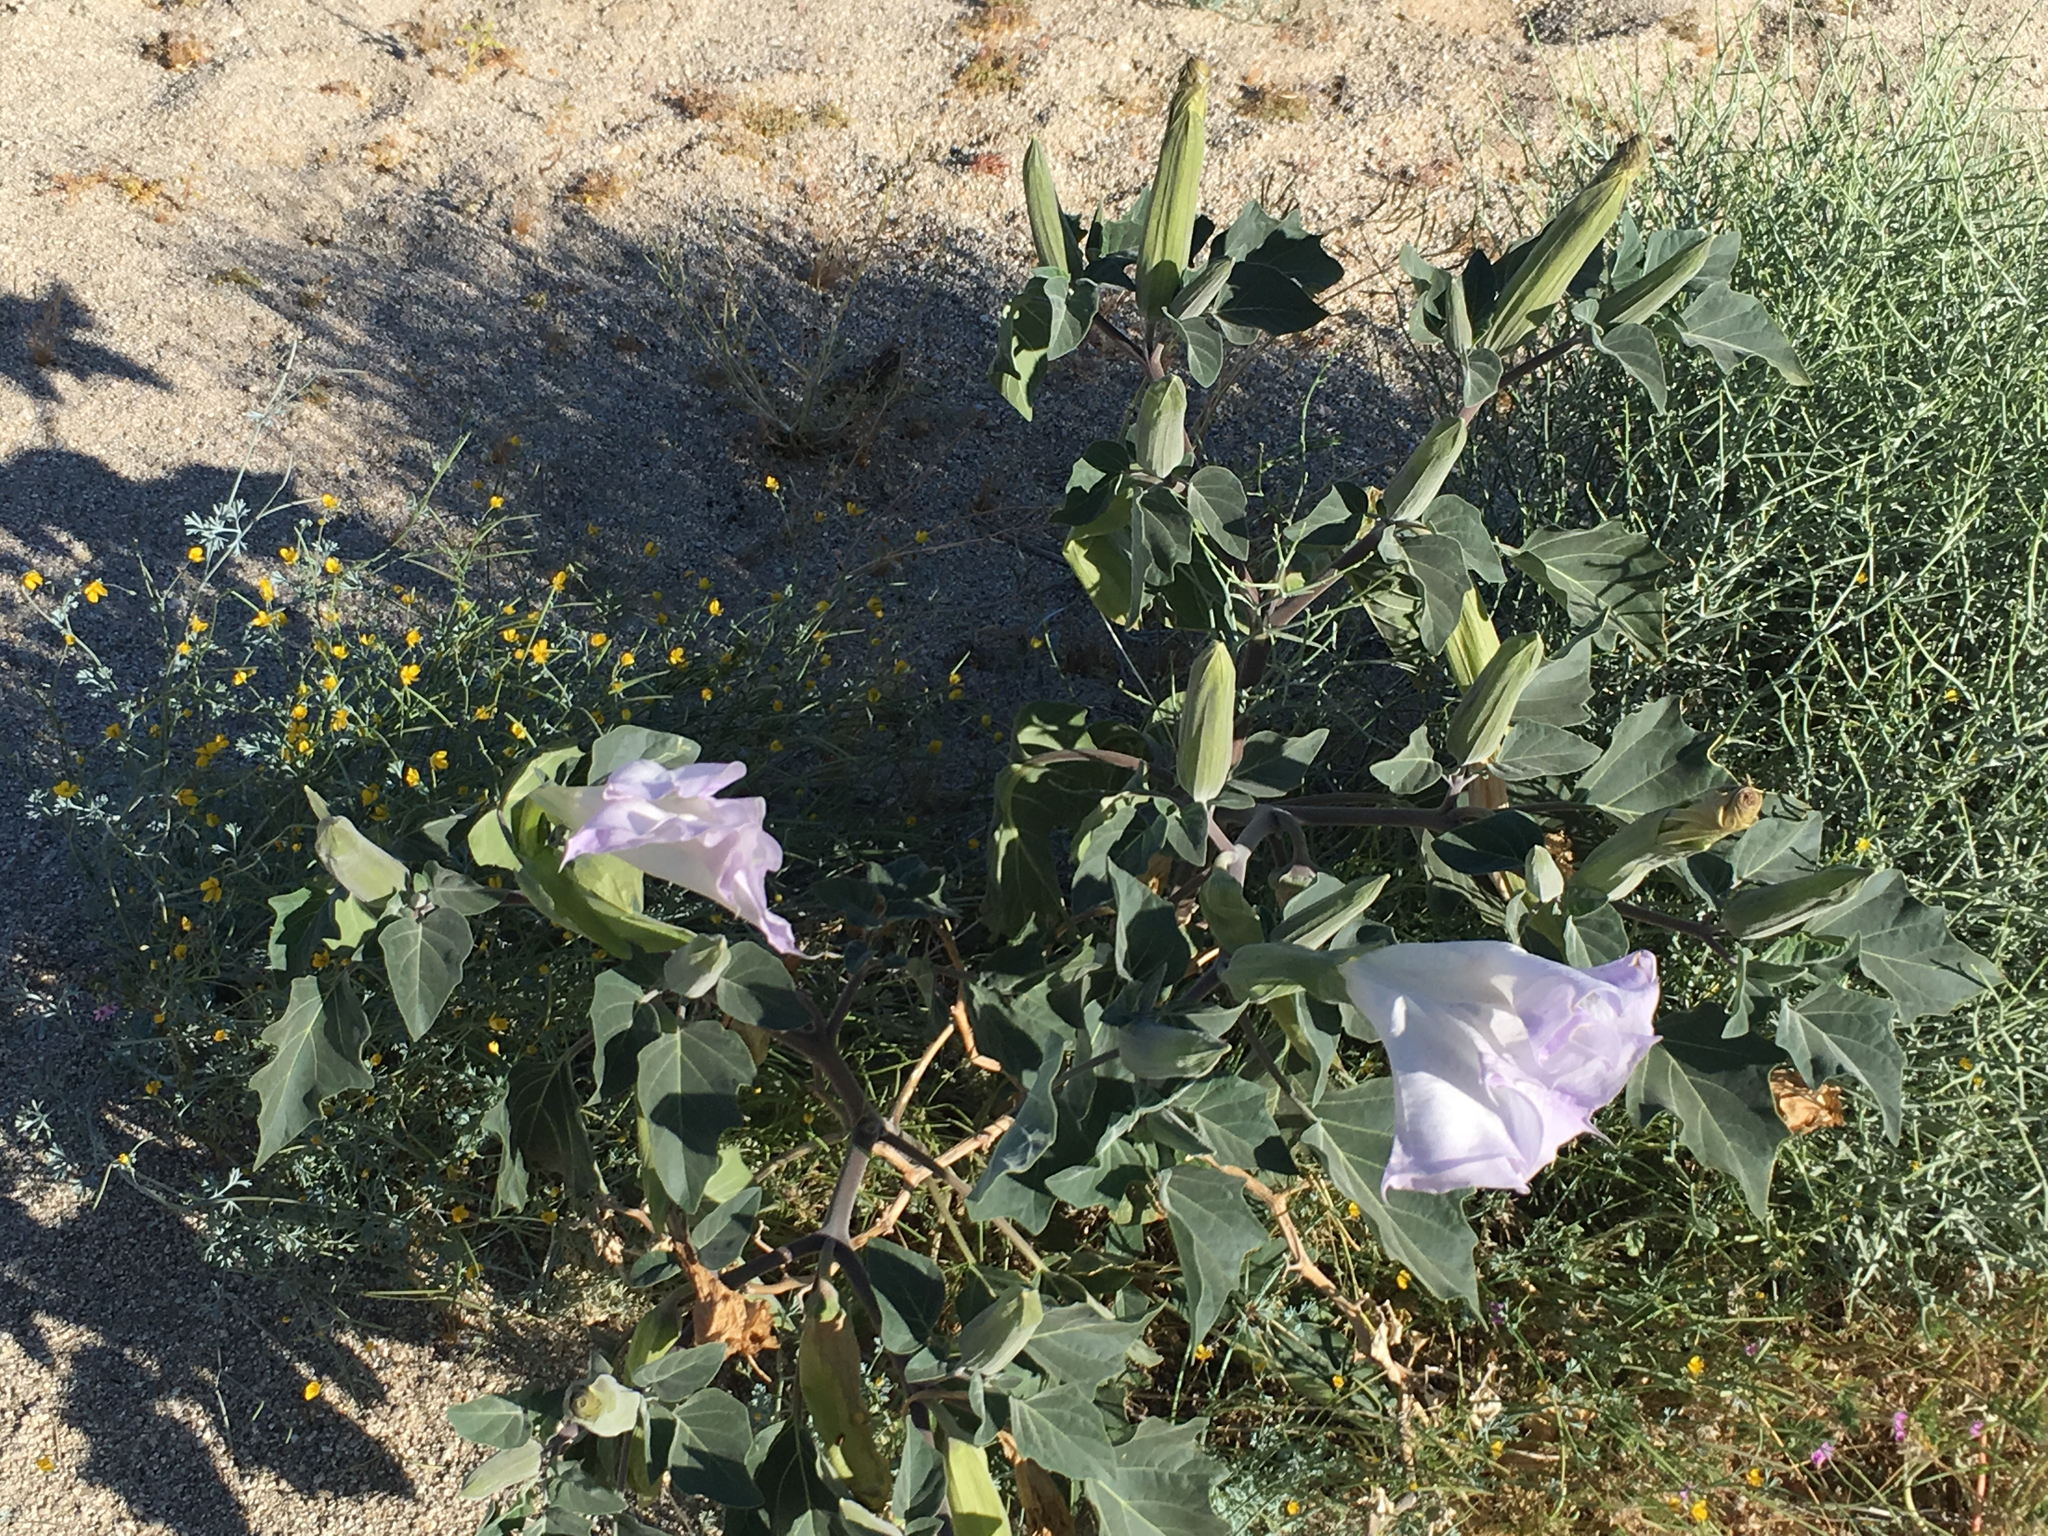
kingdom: Plantae
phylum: Tracheophyta
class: Magnoliopsida
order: Solanales
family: Solanaceae
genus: Datura
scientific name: Datura wrightii
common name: Sacred thorn-apple
